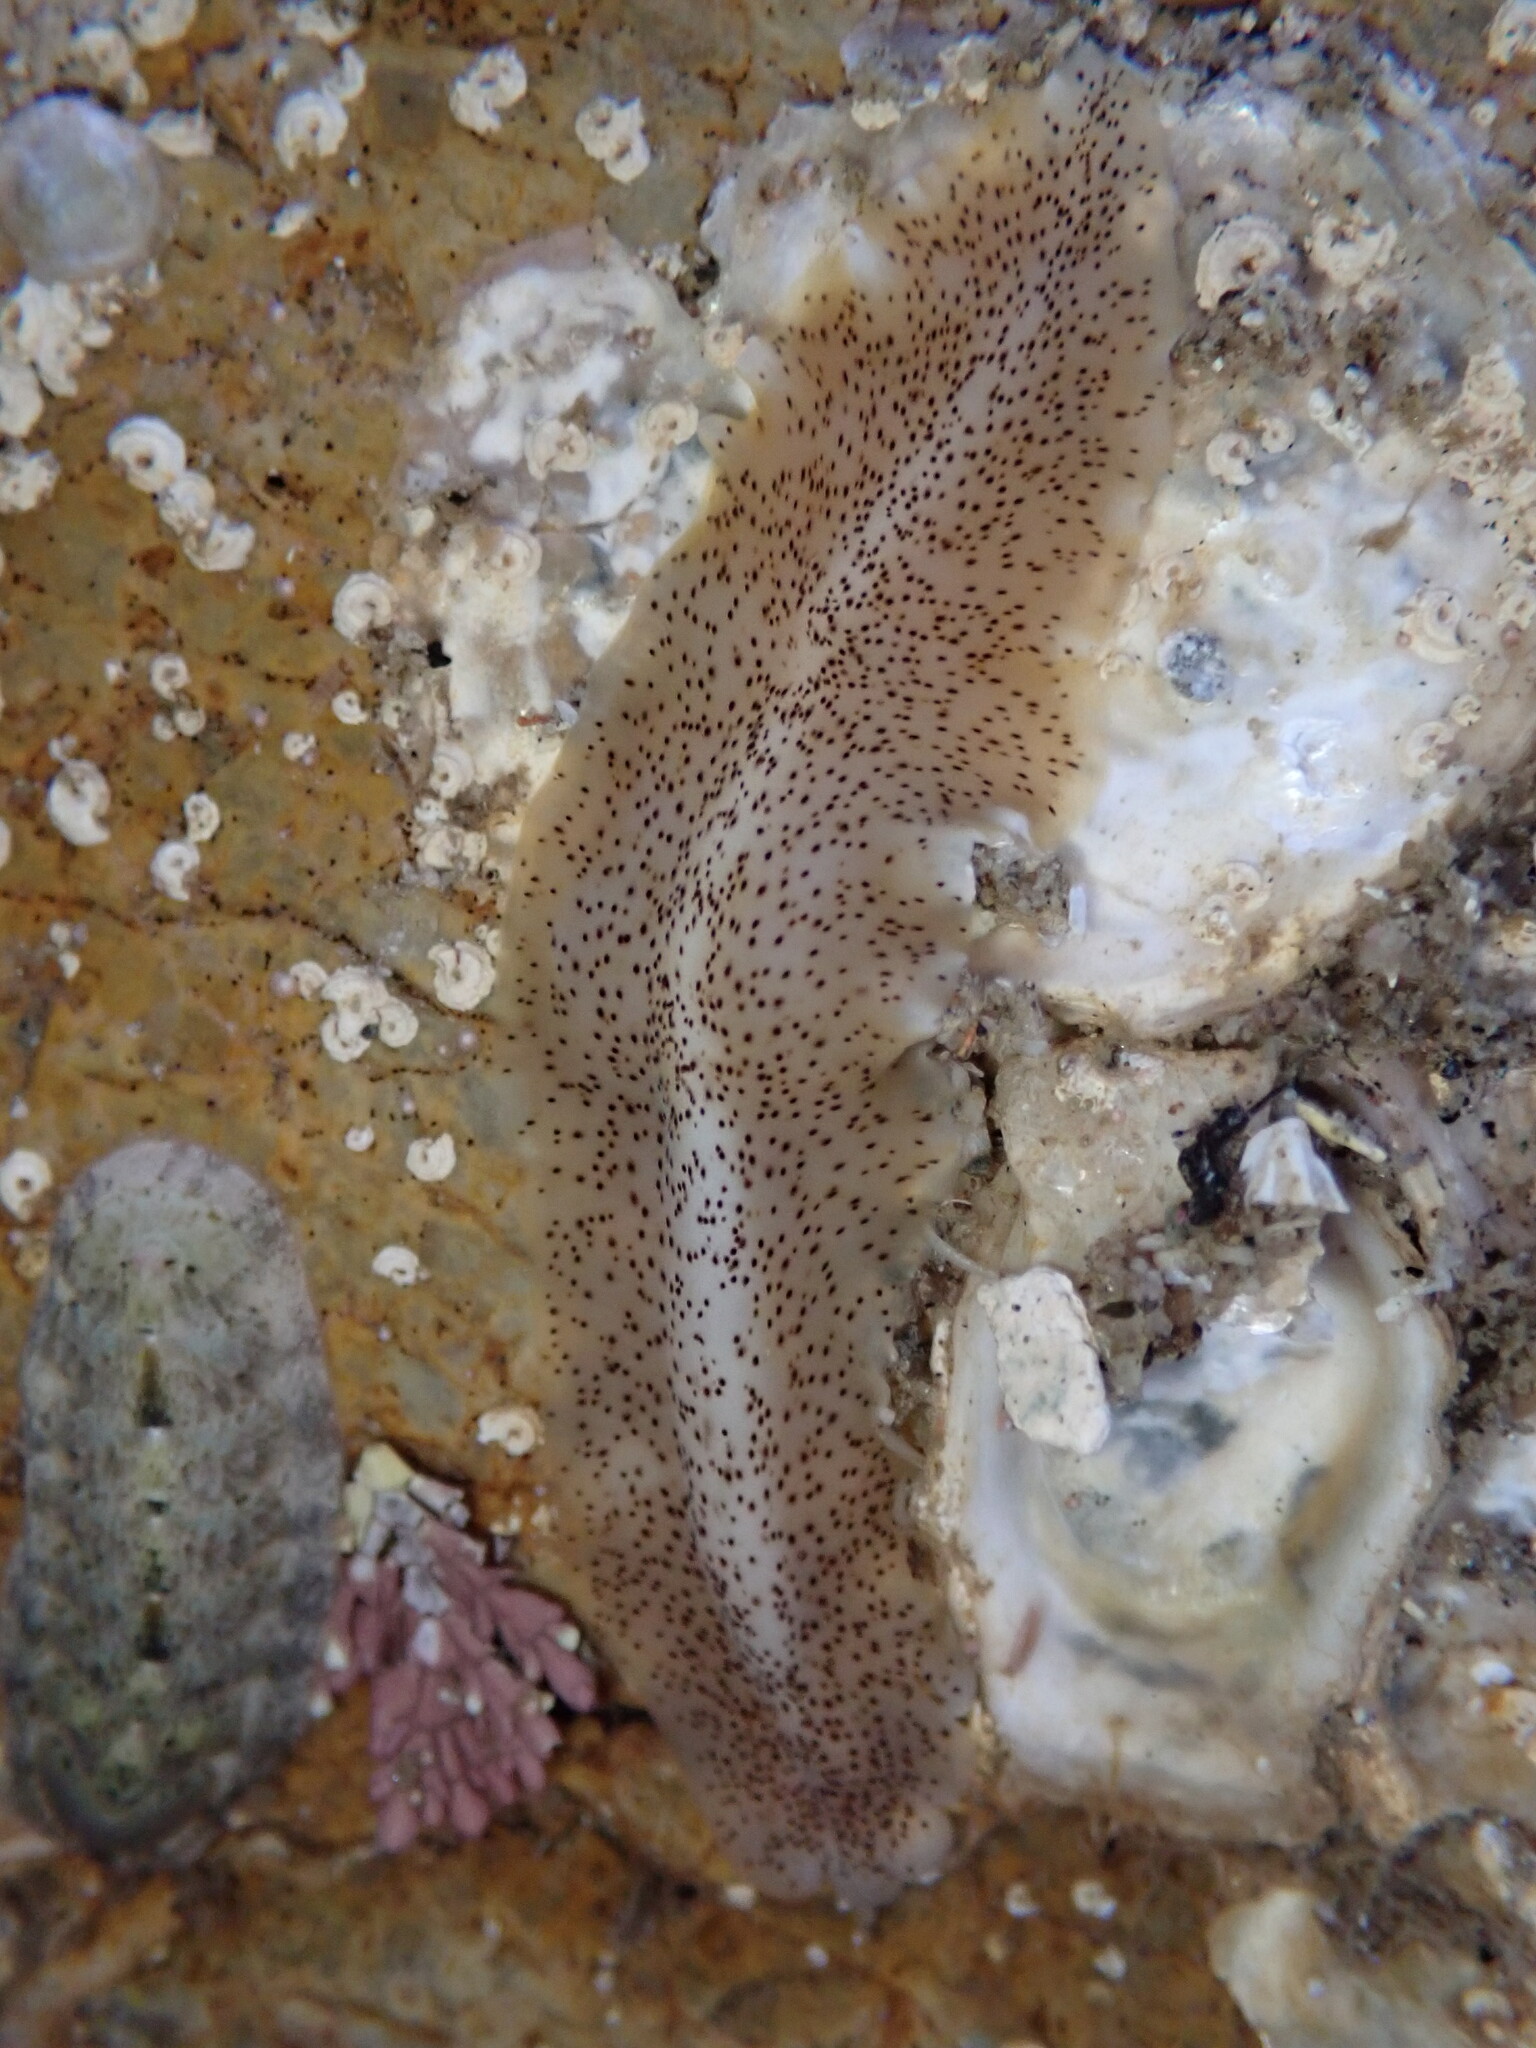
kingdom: Animalia
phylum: Platyhelminthes
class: Turbellaria
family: Prosthiostomidae
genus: Enchiridium
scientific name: Enchiridium punctatum
